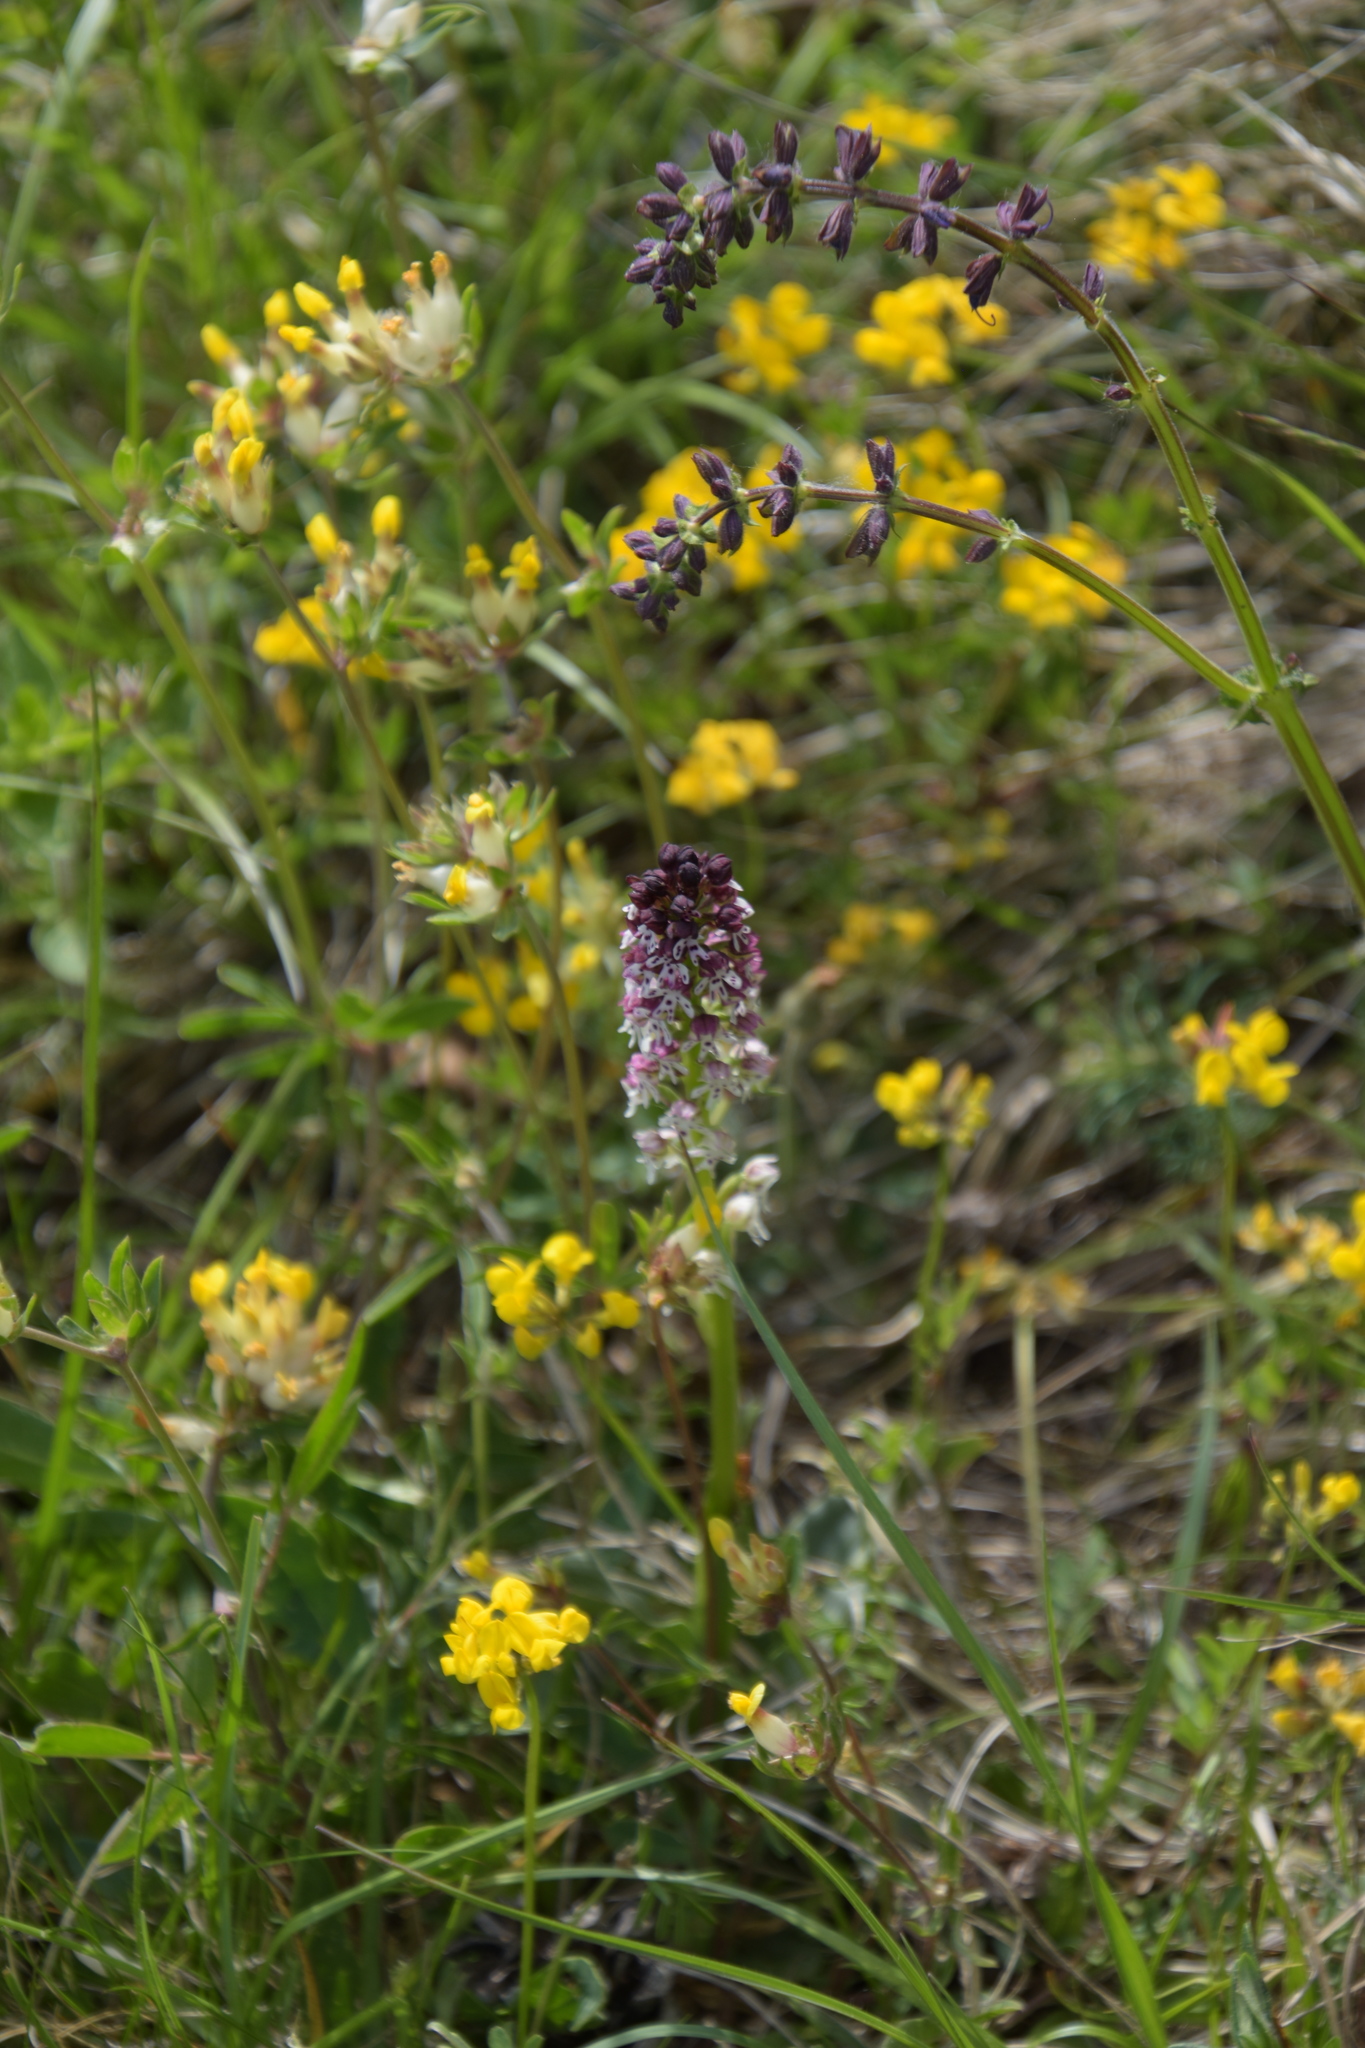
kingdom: Plantae
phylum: Tracheophyta
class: Liliopsida
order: Asparagales
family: Orchidaceae
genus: Neotinea
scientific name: Neotinea ustulata
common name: Burnt orchid
